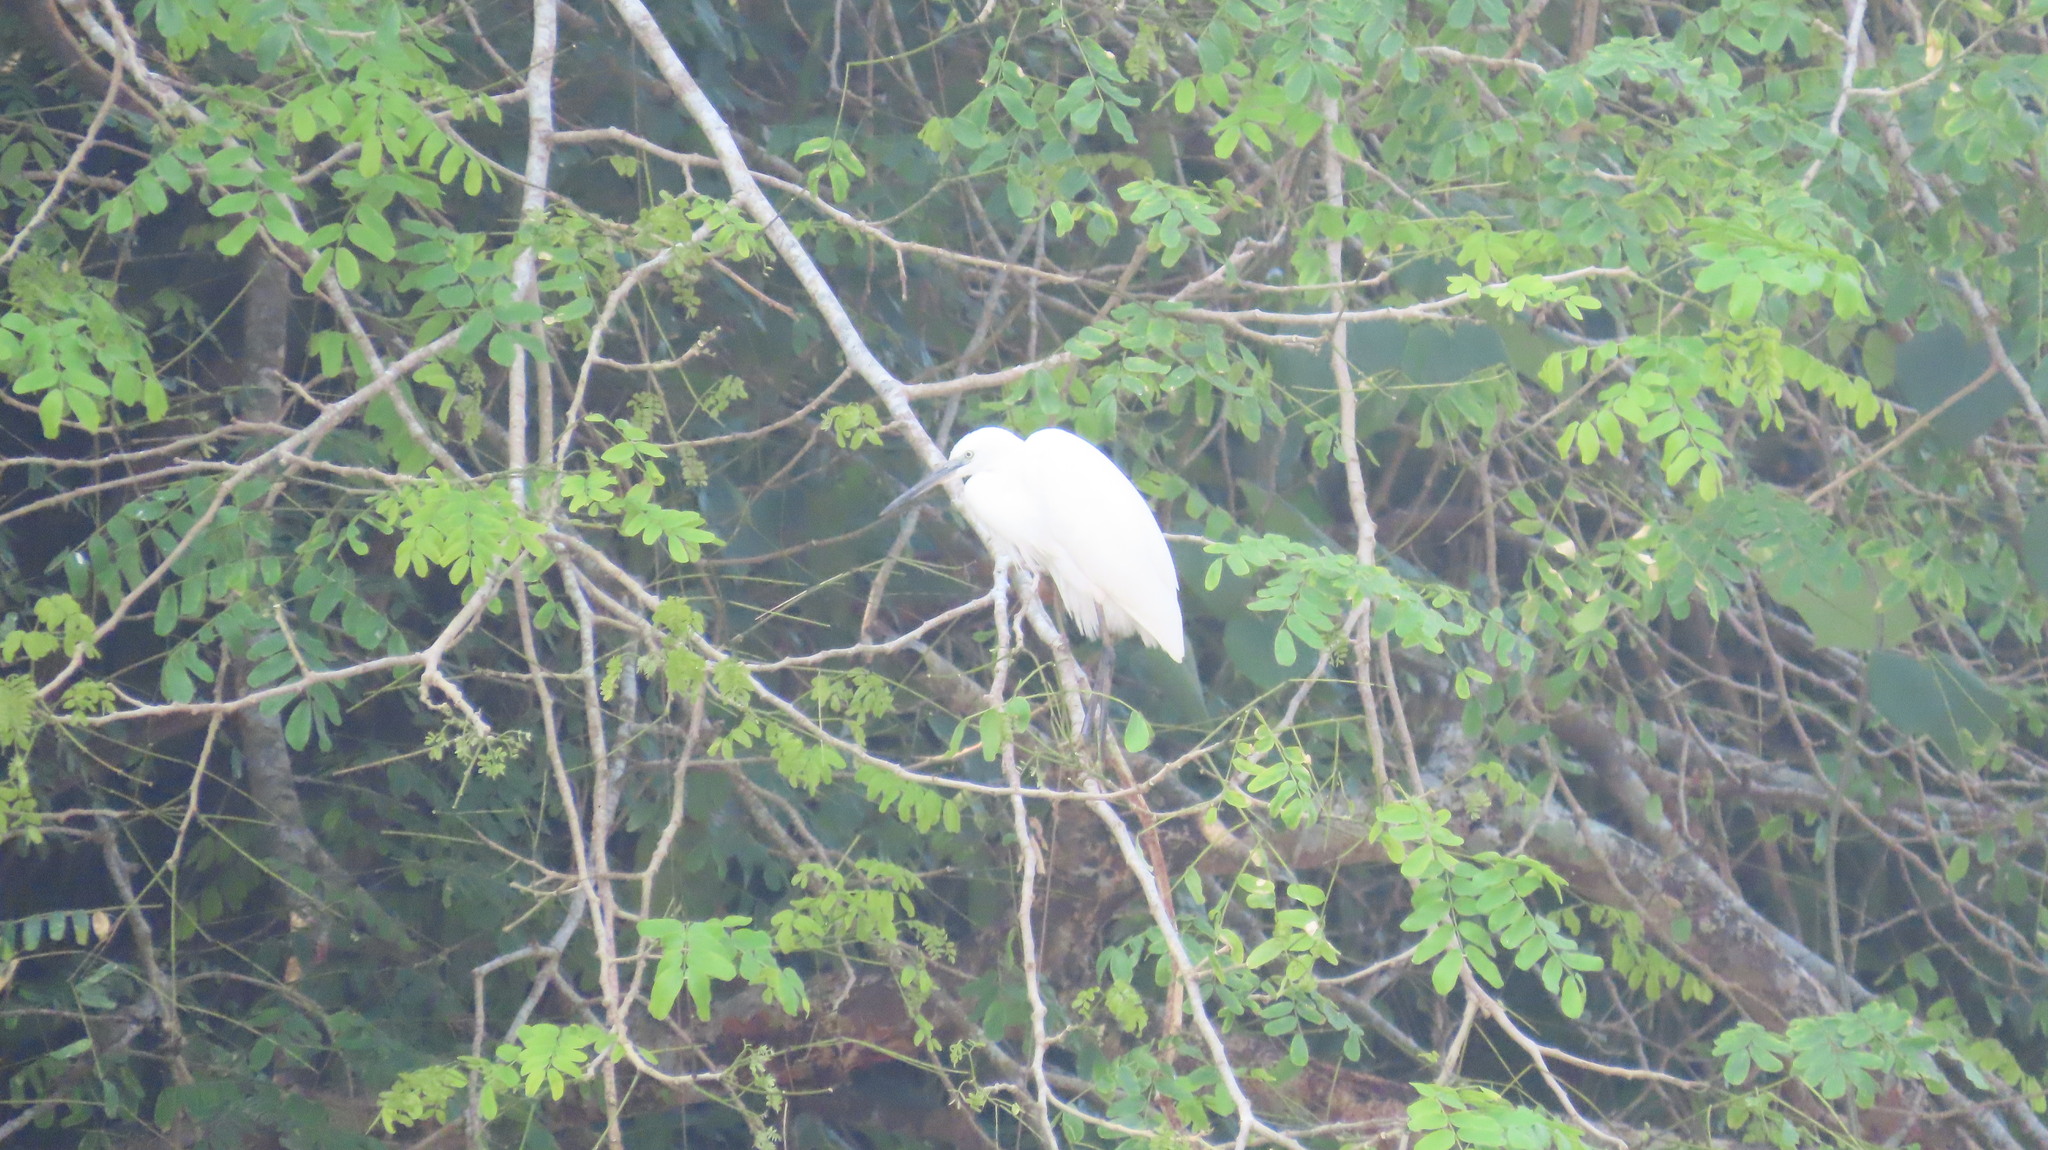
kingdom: Animalia
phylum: Chordata
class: Aves
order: Pelecaniformes
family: Ardeidae
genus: Egretta
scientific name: Egretta garzetta
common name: Little egret
